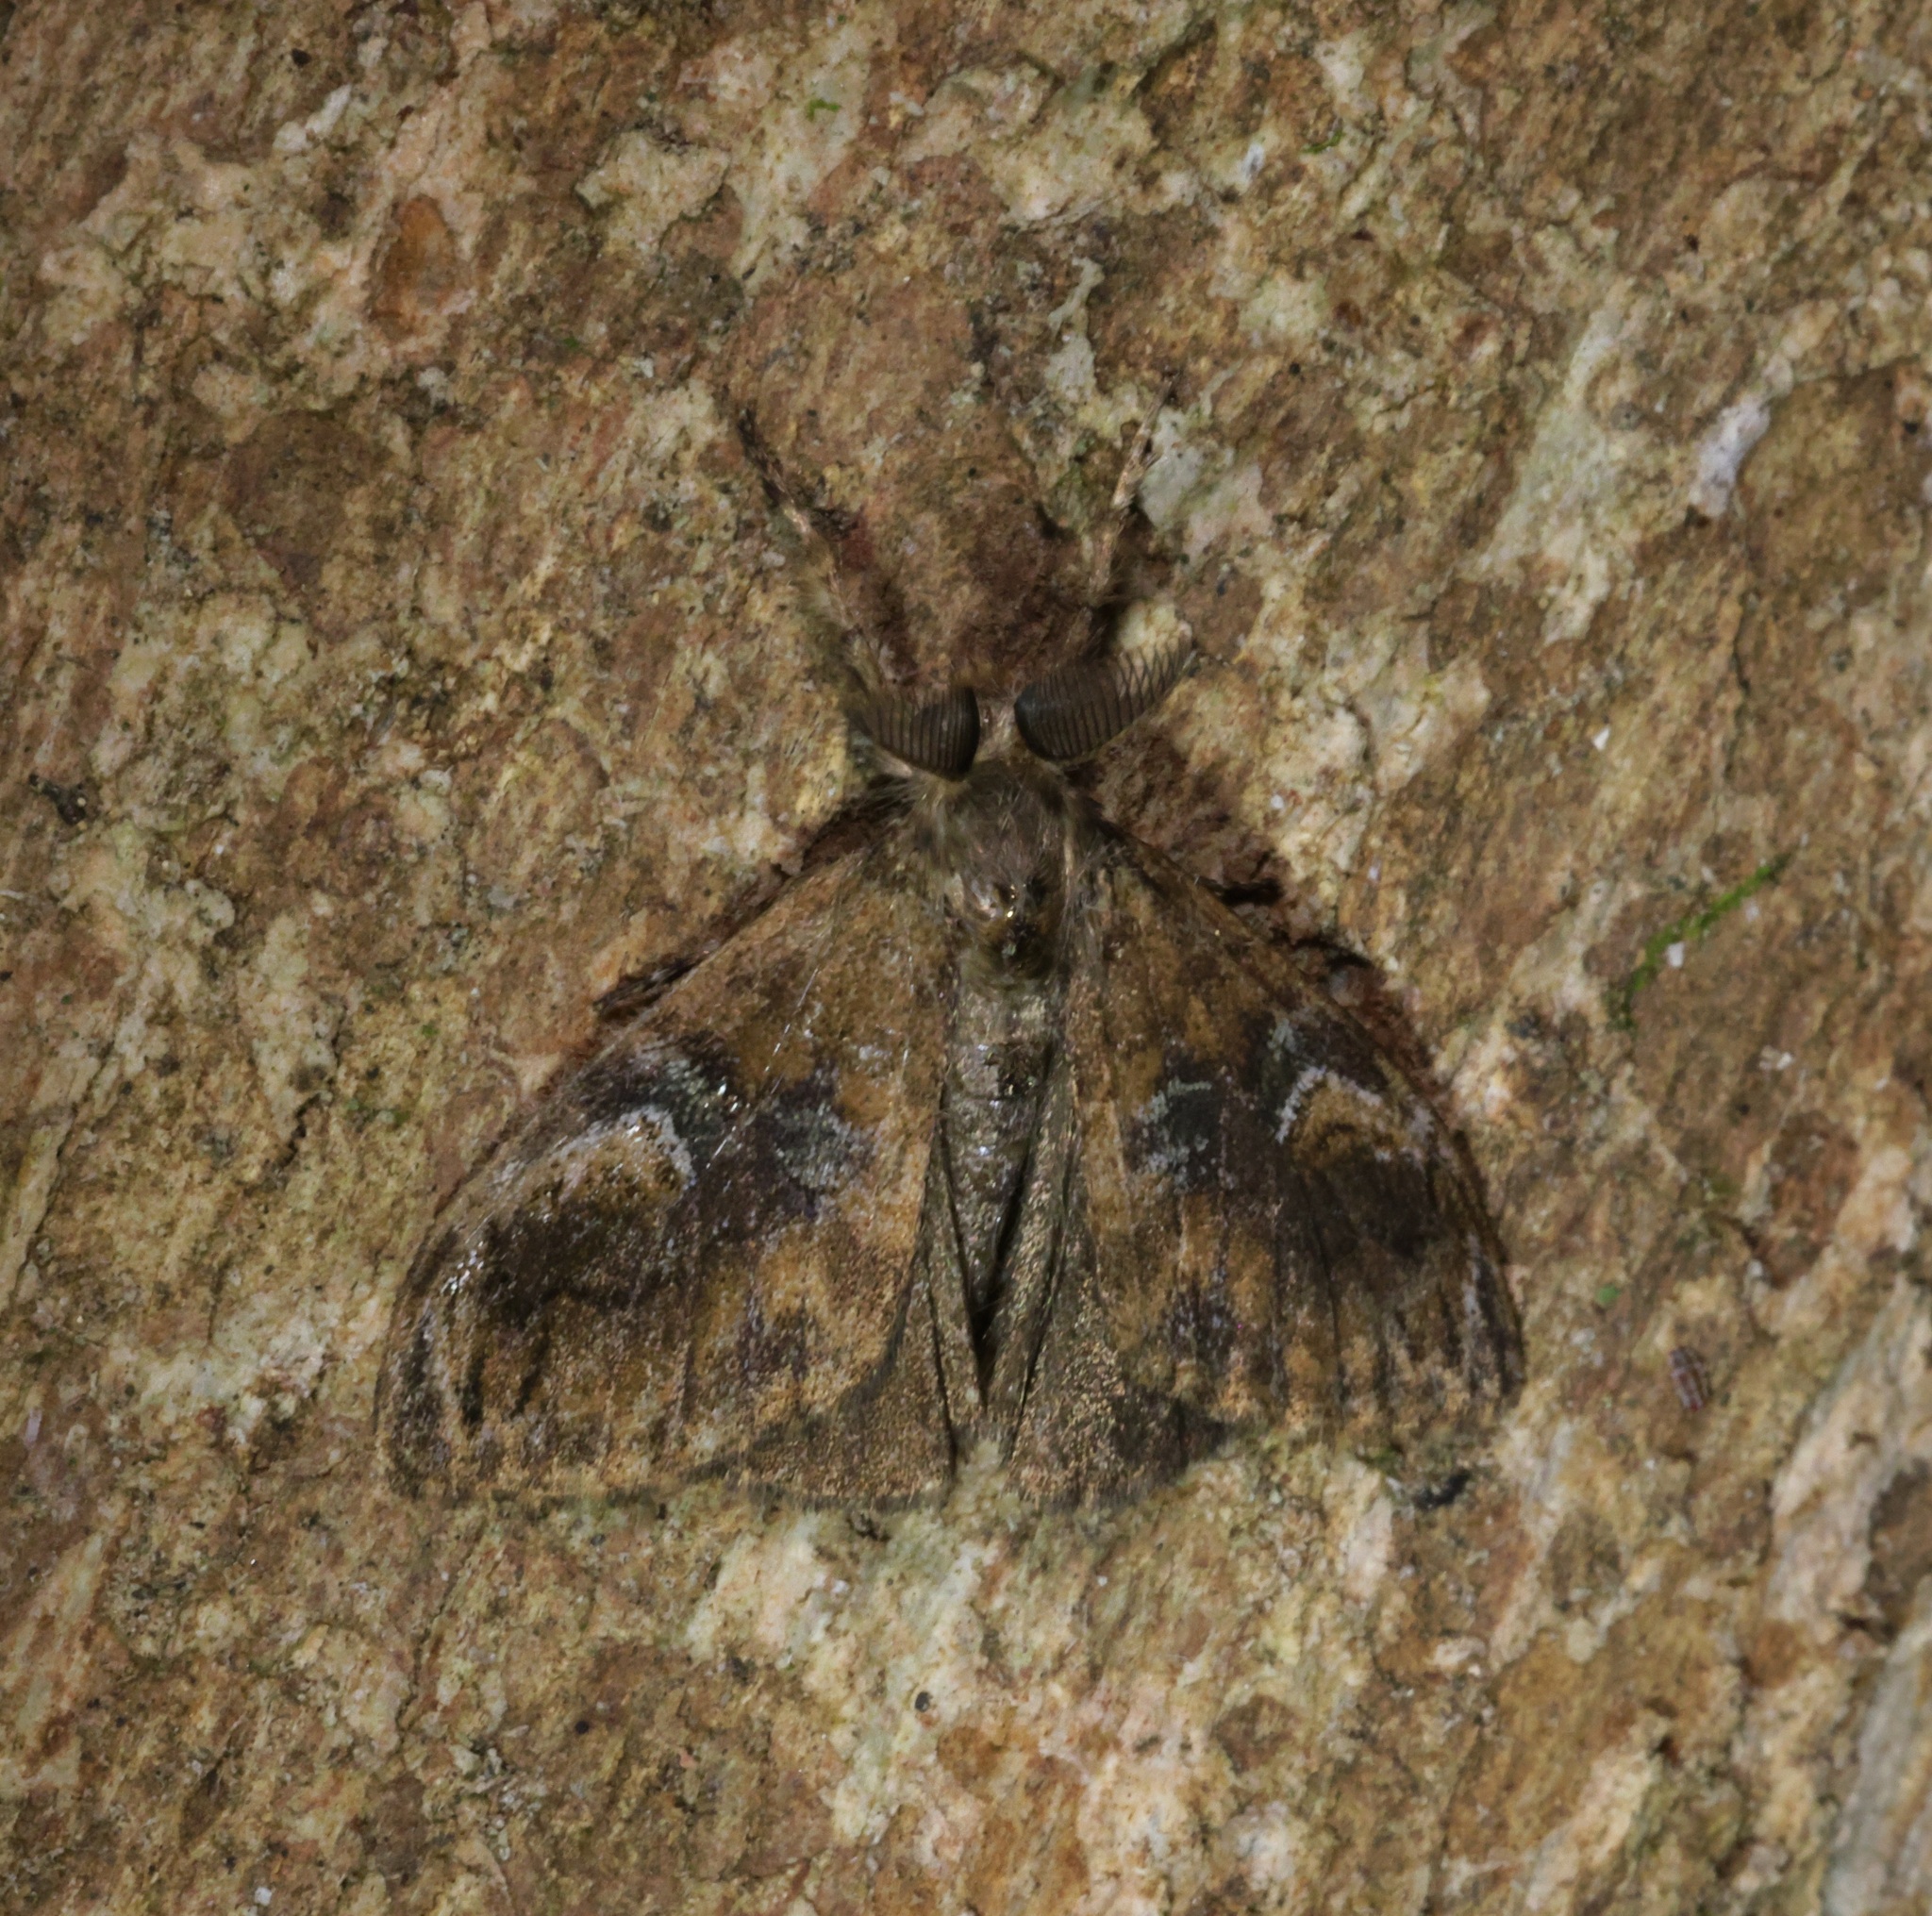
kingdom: Animalia
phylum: Arthropoda
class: Insecta
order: Lepidoptera
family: Erebidae
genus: Orgyia
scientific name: Orgyia postica
